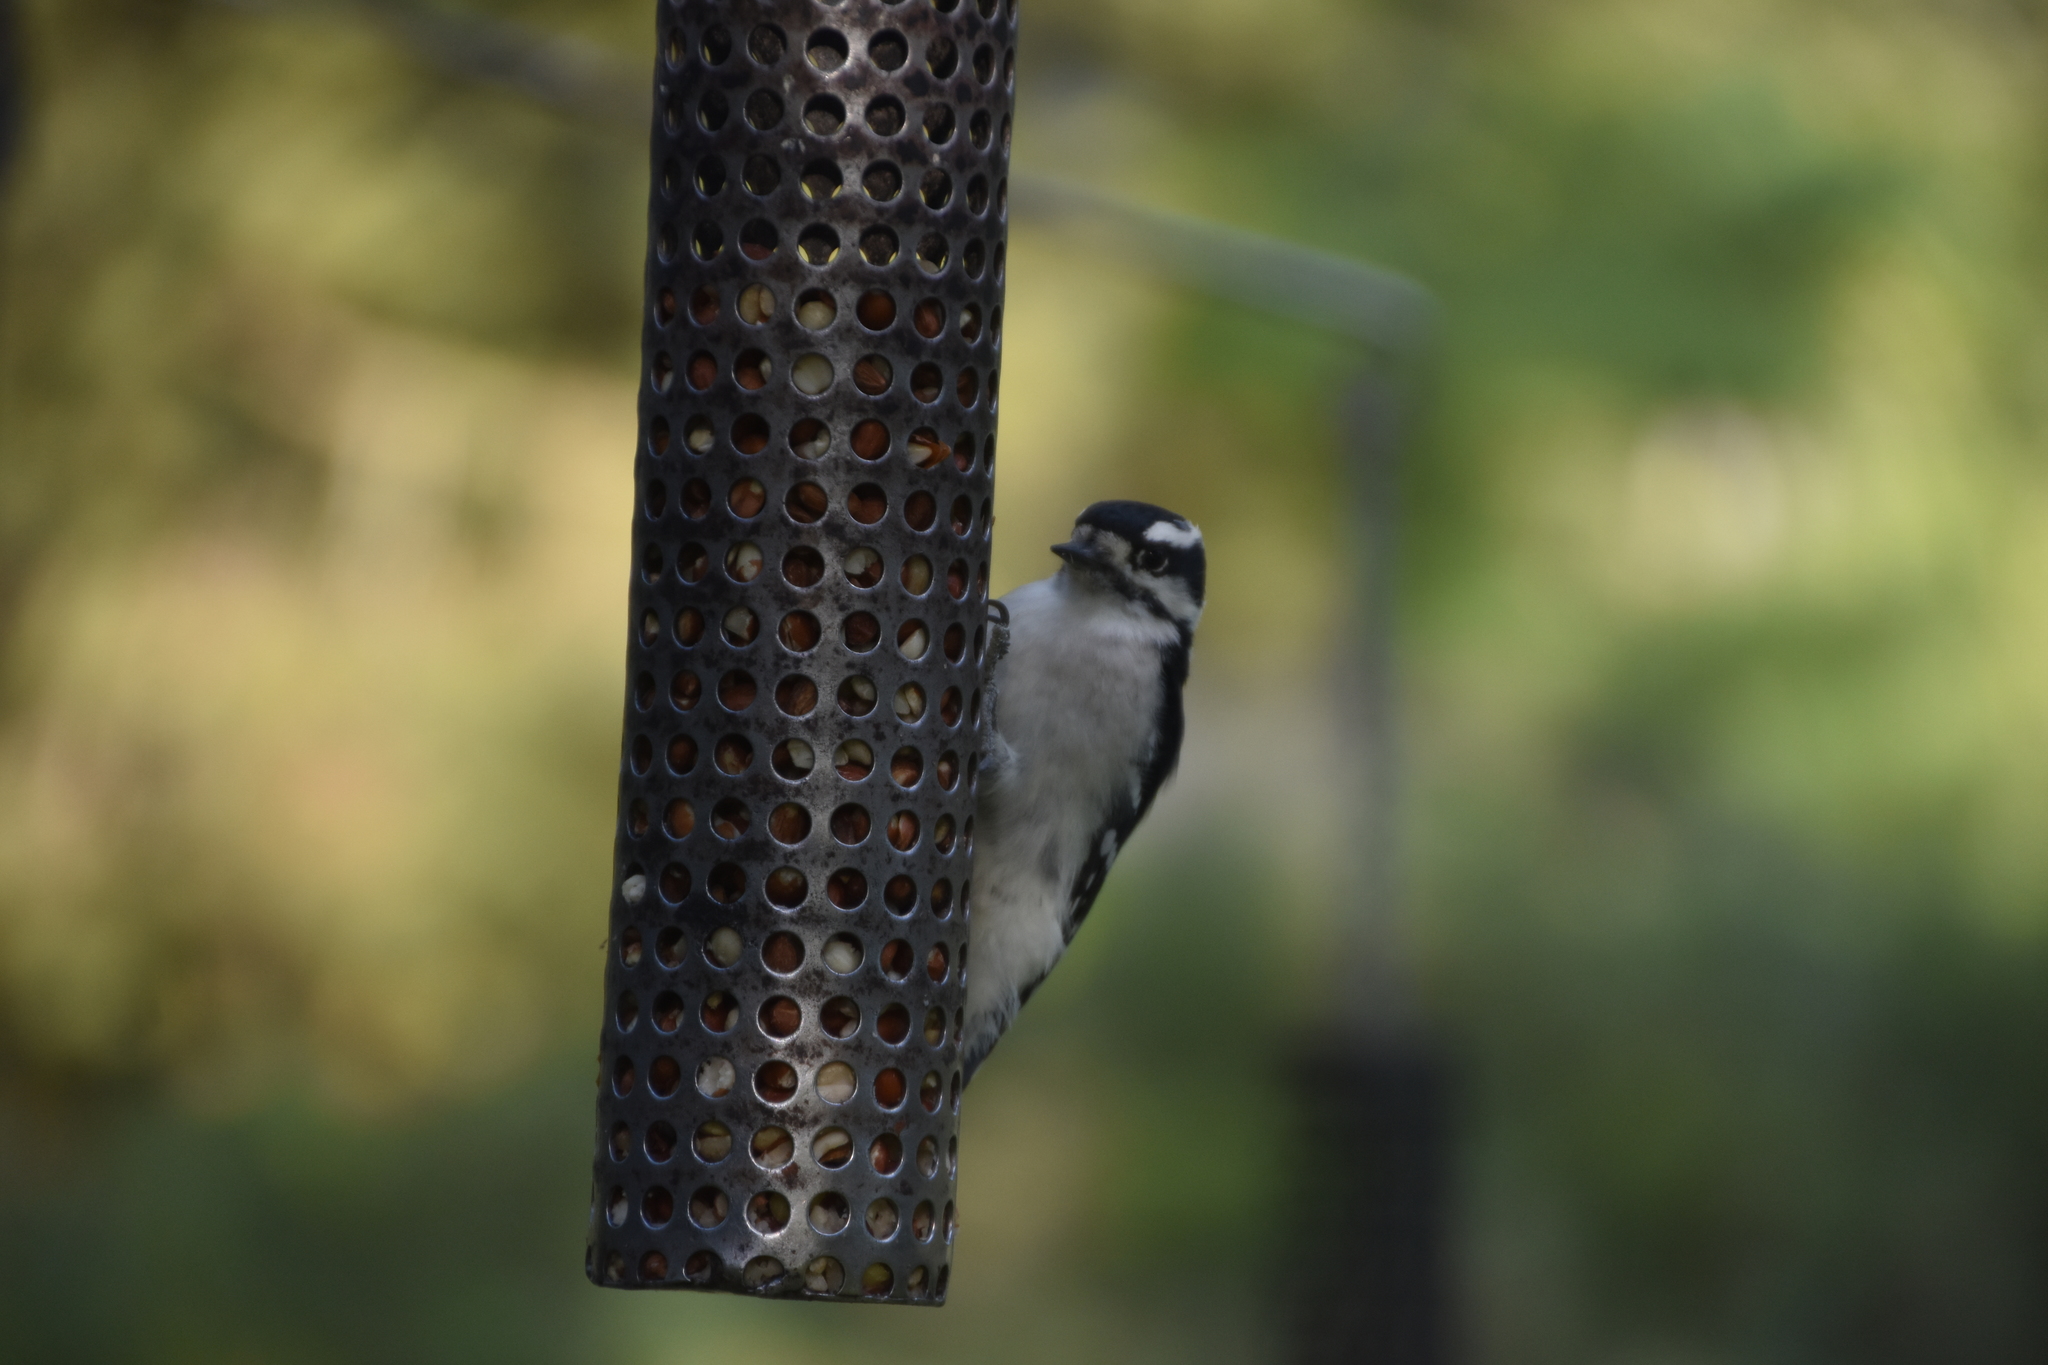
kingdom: Animalia
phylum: Chordata
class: Aves
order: Piciformes
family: Picidae
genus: Dryobates
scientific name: Dryobates pubescens
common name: Downy woodpecker
